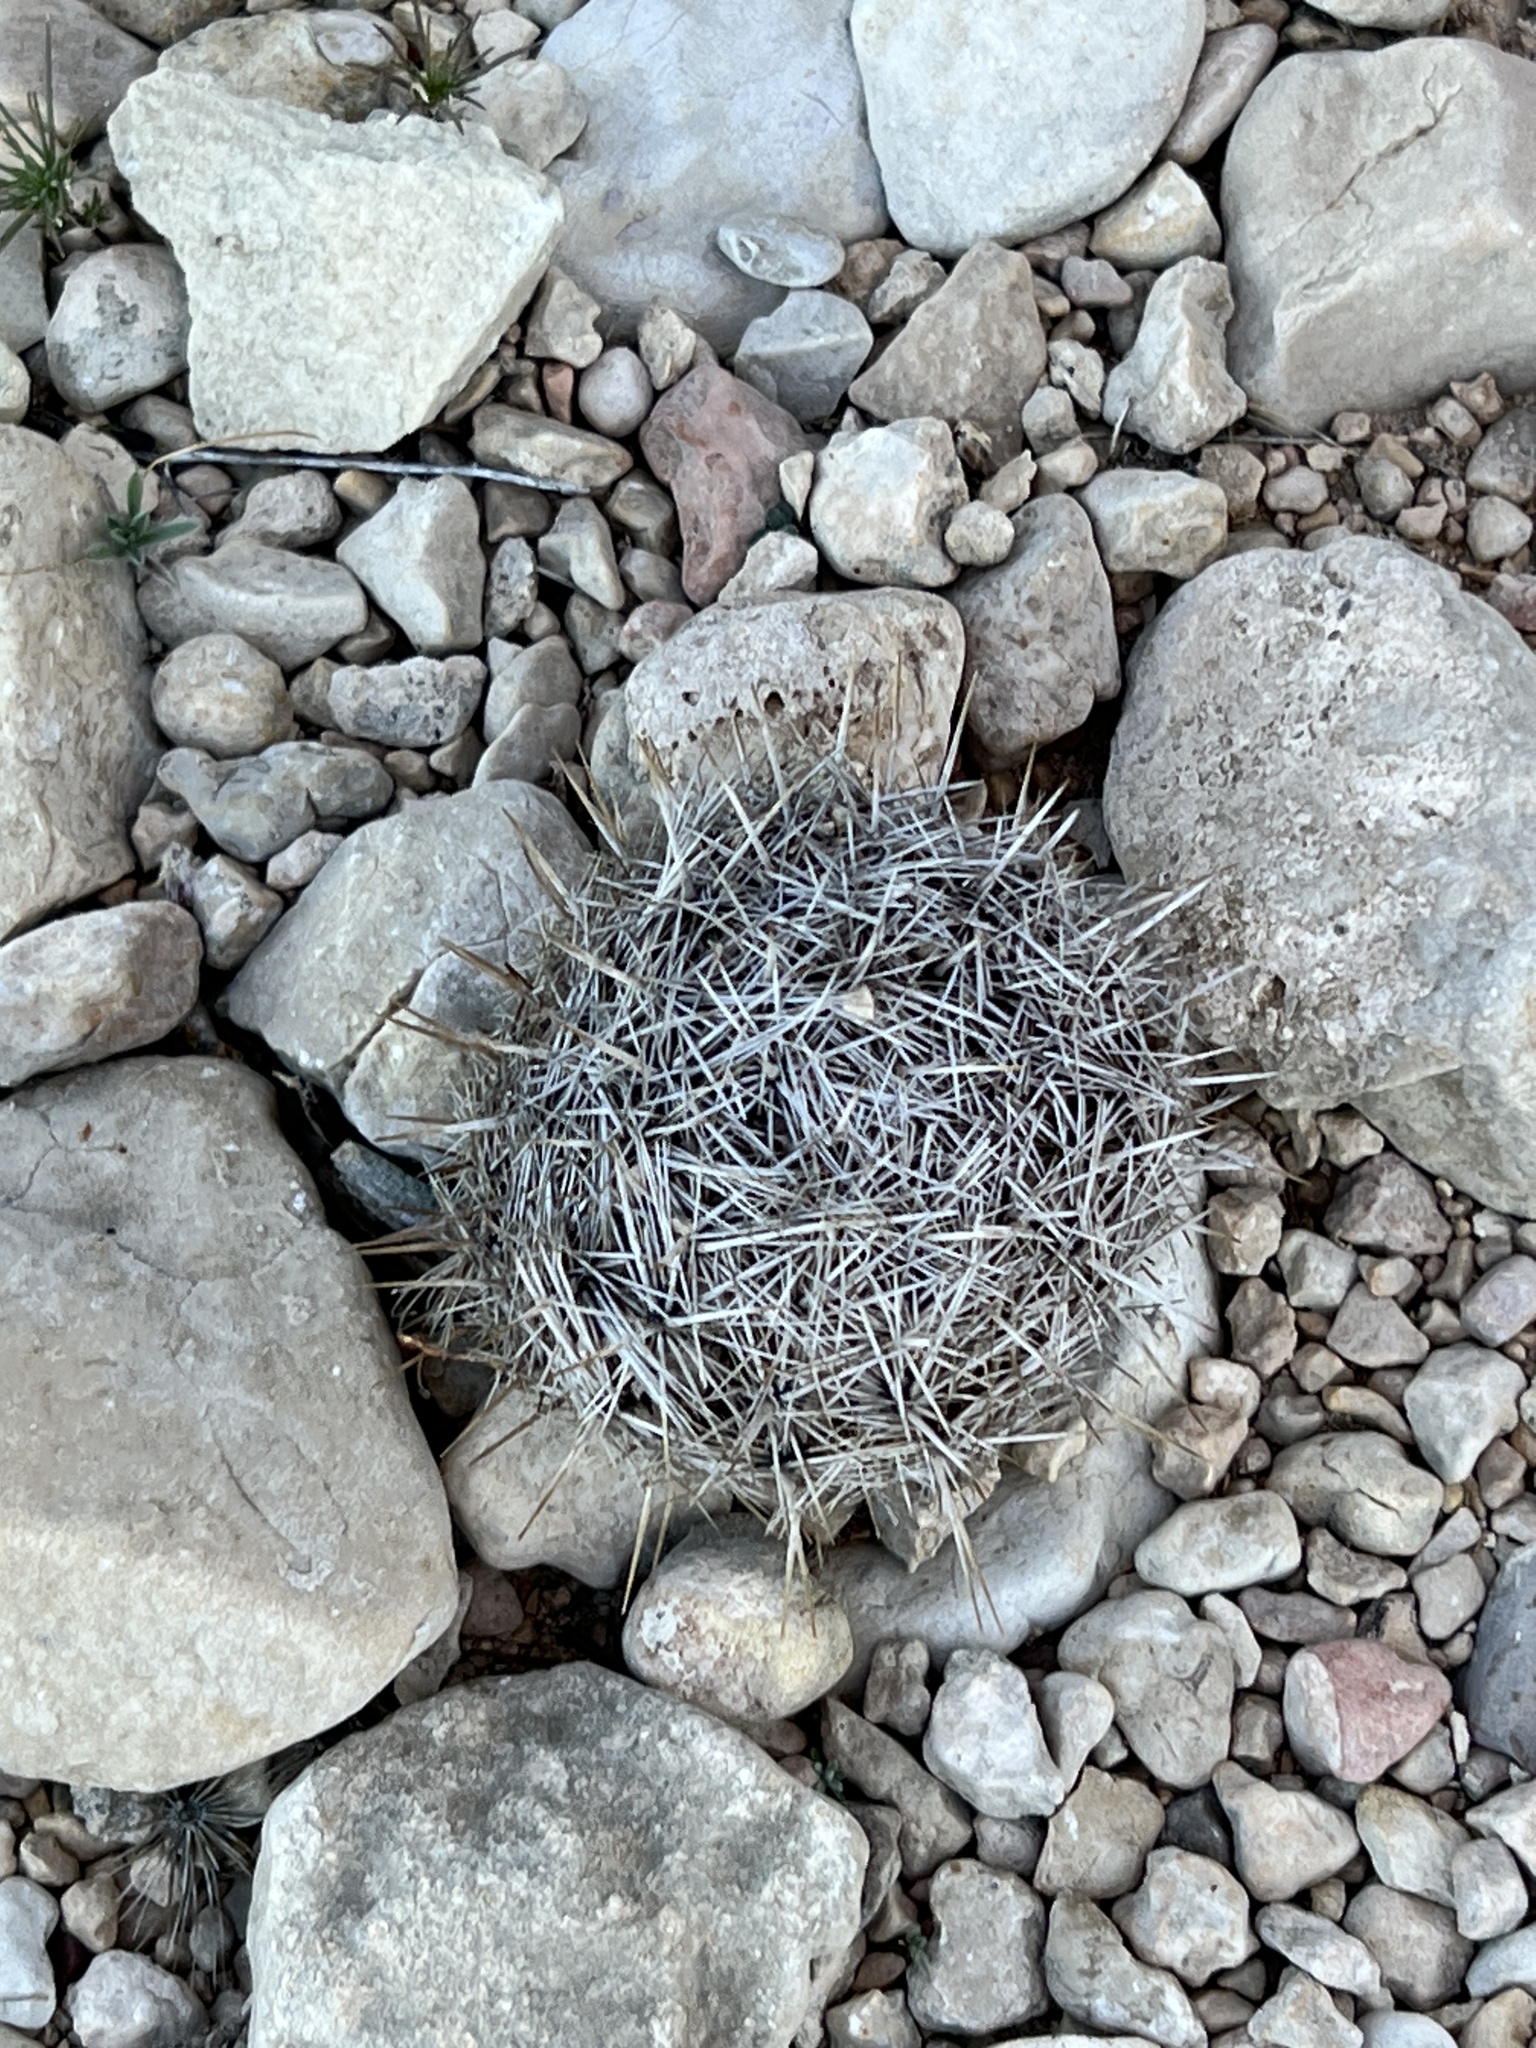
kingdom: Plantae
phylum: Tracheophyta
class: Magnoliopsida
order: Caryophyllales
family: Cactaceae
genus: Coryphantha
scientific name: Coryphantha echinus
